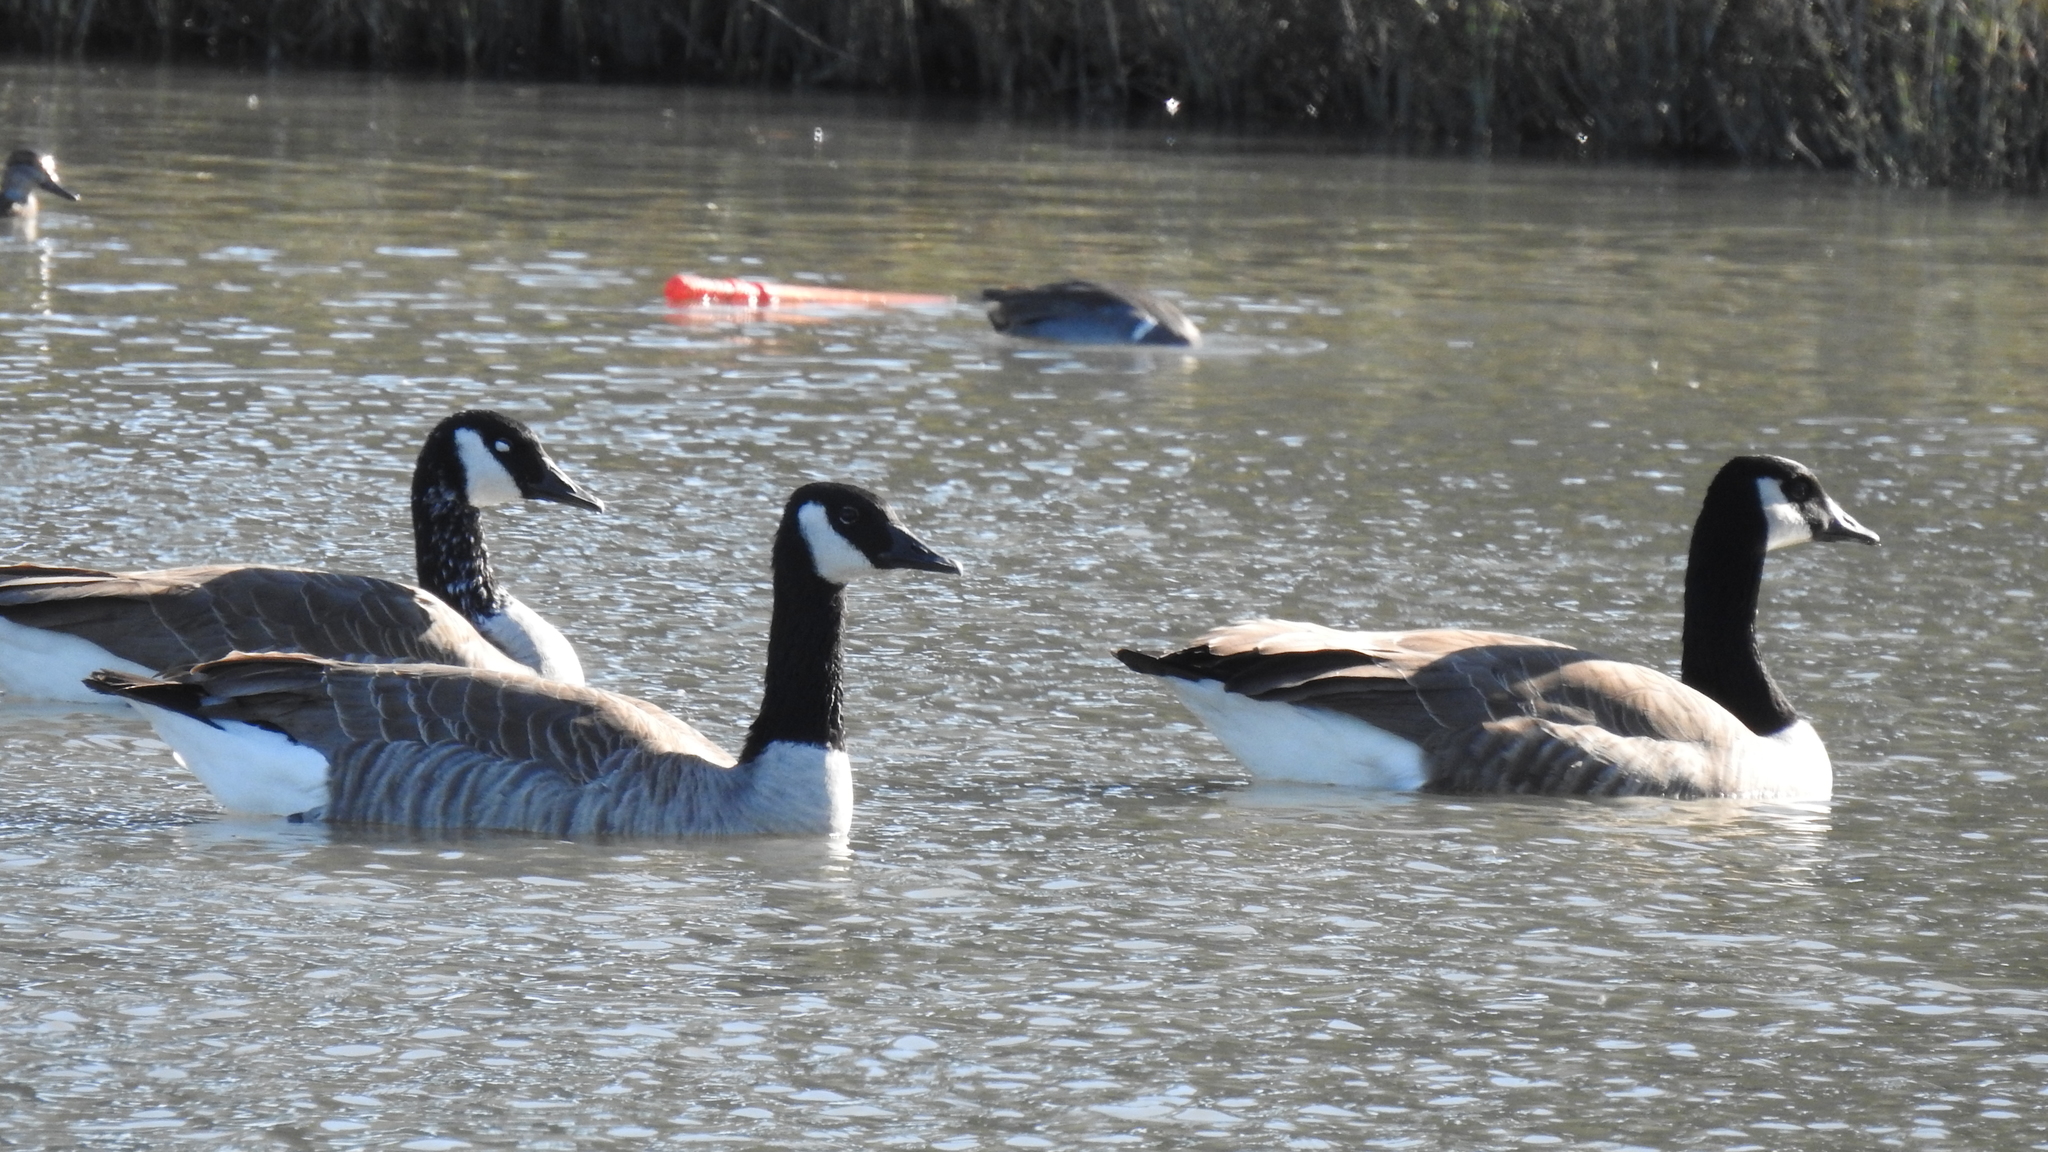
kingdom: Animalia
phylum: Chordata
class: Aves
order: Anseriformes
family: Anatidae
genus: Branta
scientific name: Branta canadensis
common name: Canada goose
